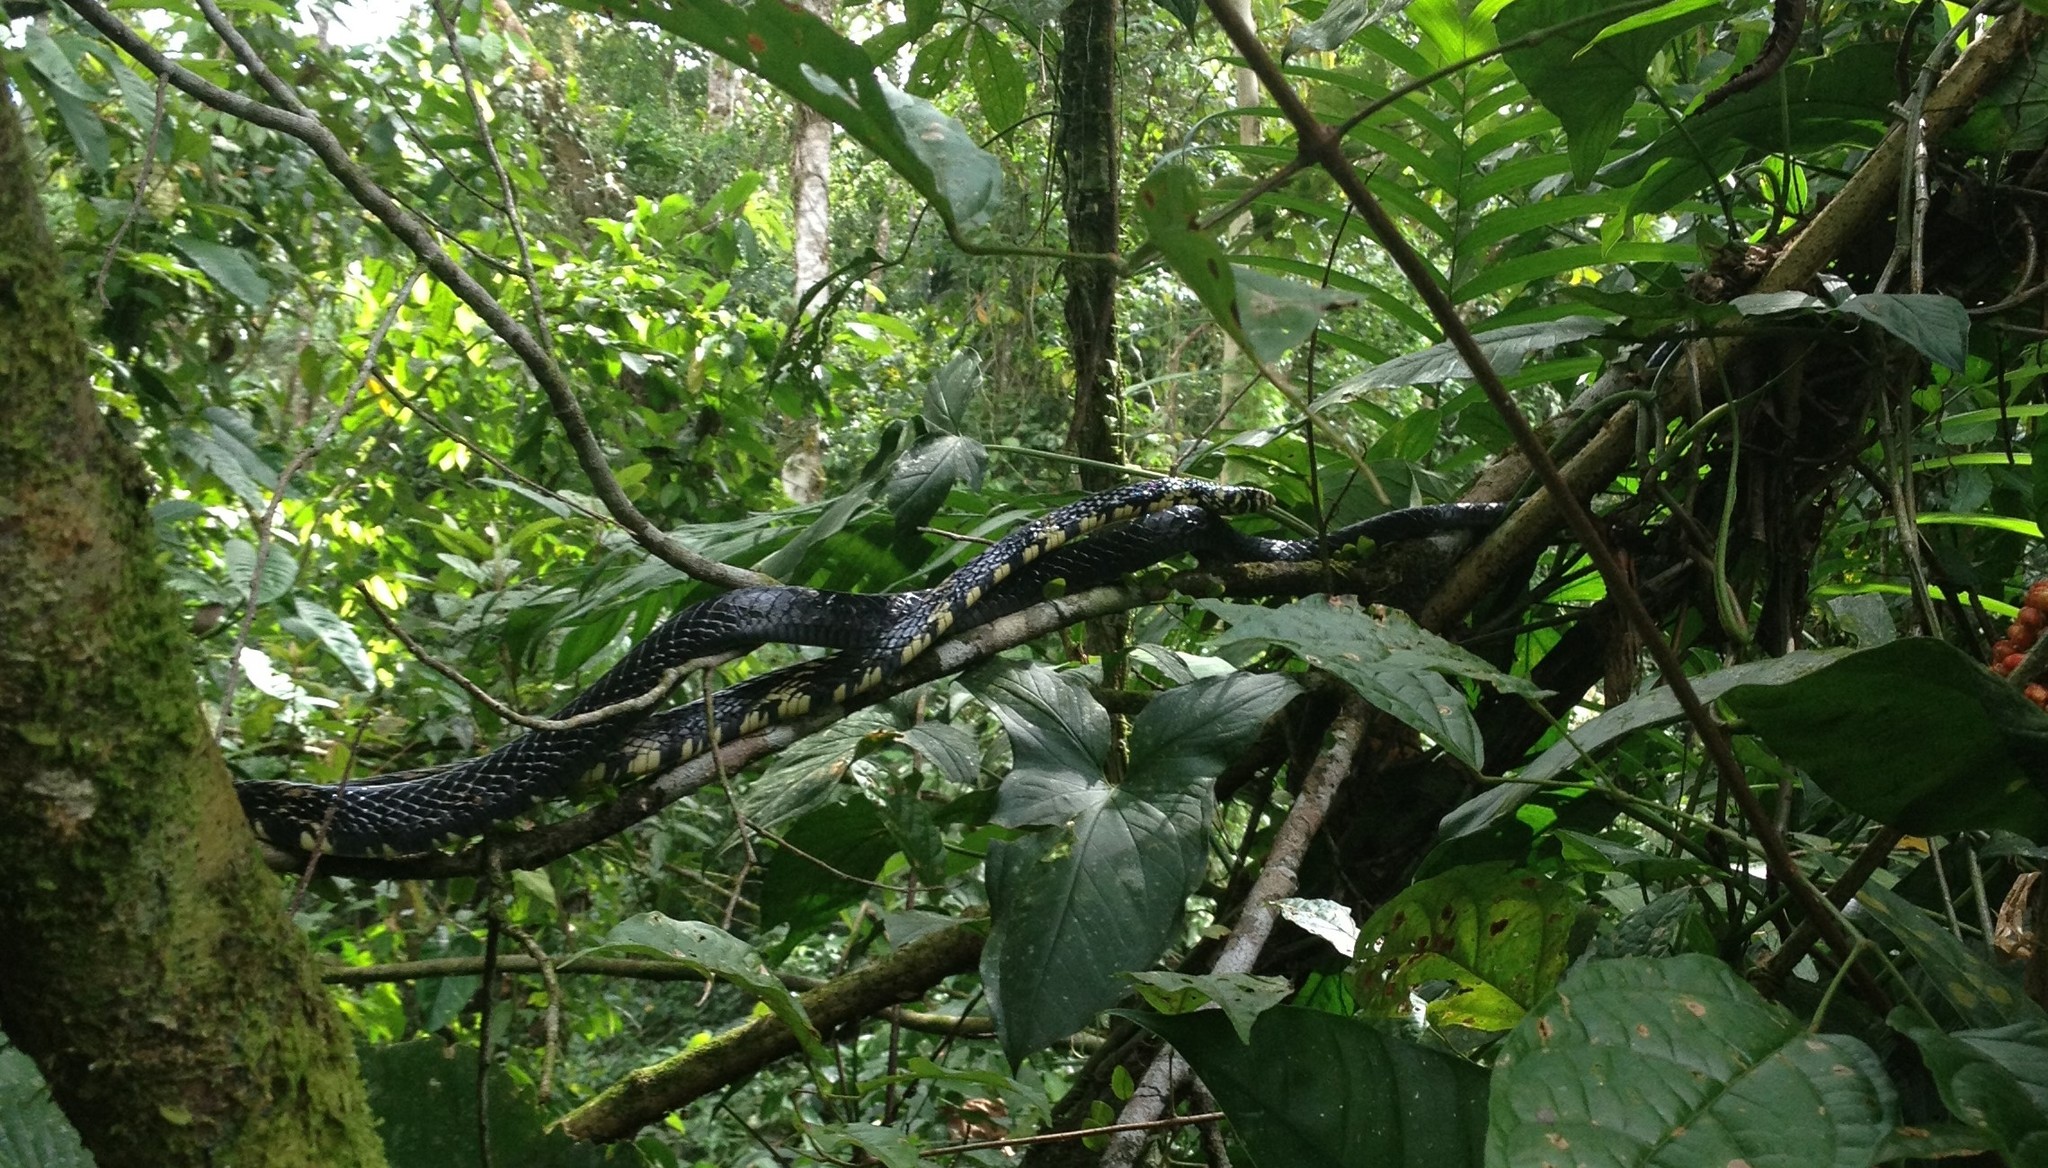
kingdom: Animalia
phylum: Chordata
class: Squamata
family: Colubridae
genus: Spilotes
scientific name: Spilotes pullatus
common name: Chicken snake
